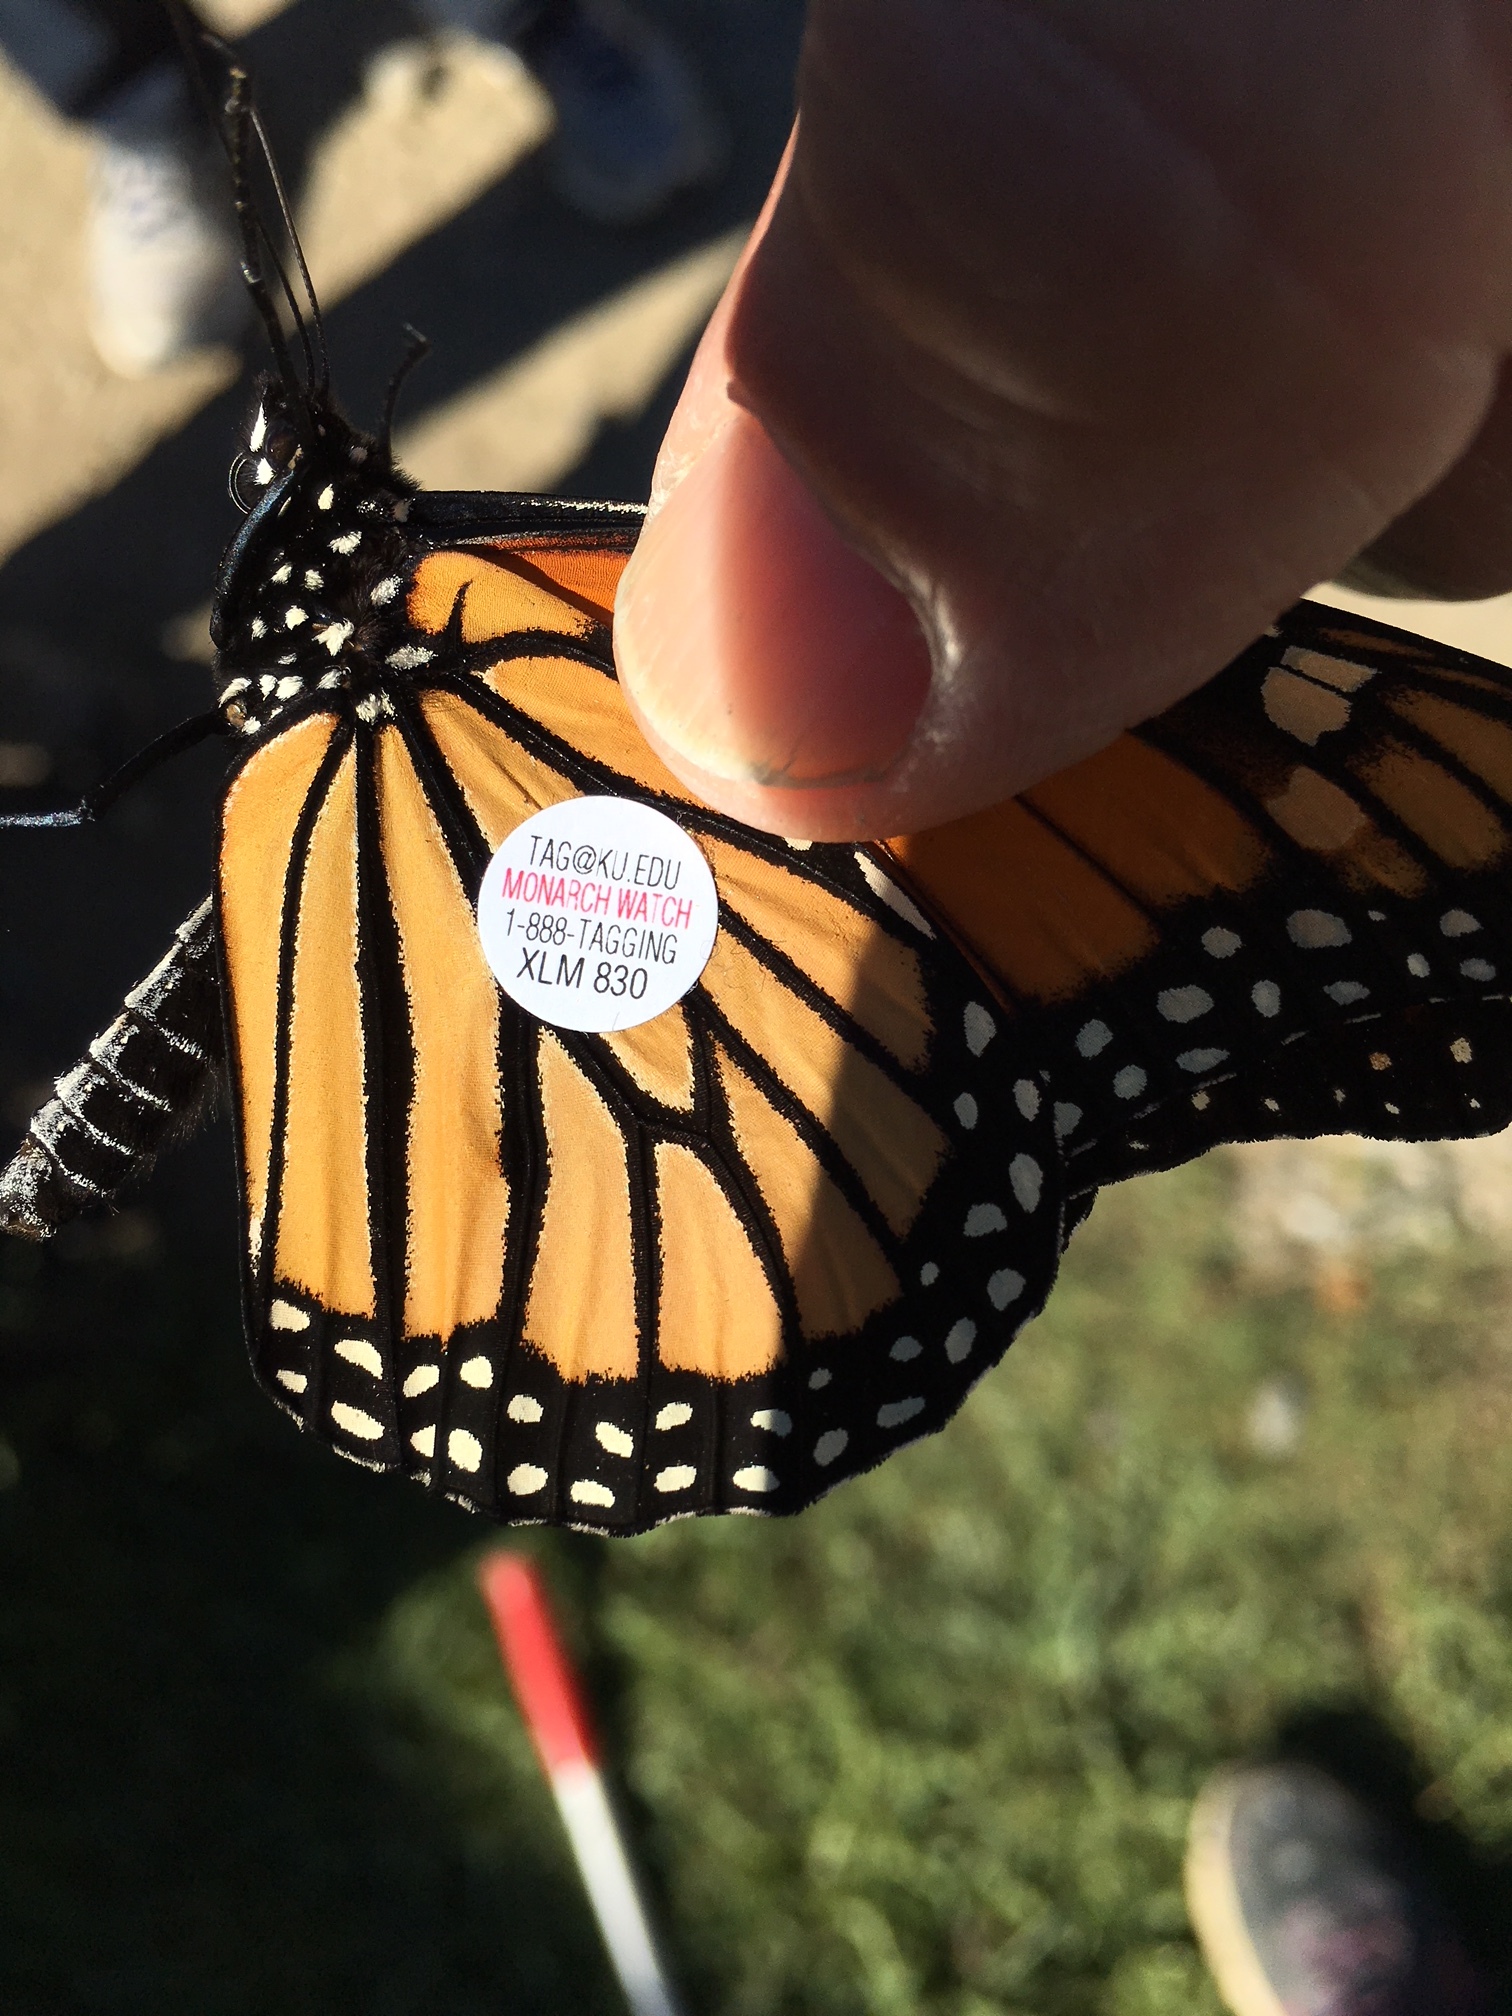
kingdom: Animalia
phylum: Arthropoda
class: Insecta
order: Lepidoptera
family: Nymphalidae
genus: Danaus
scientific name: Danaus plexippus
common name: Monarch
